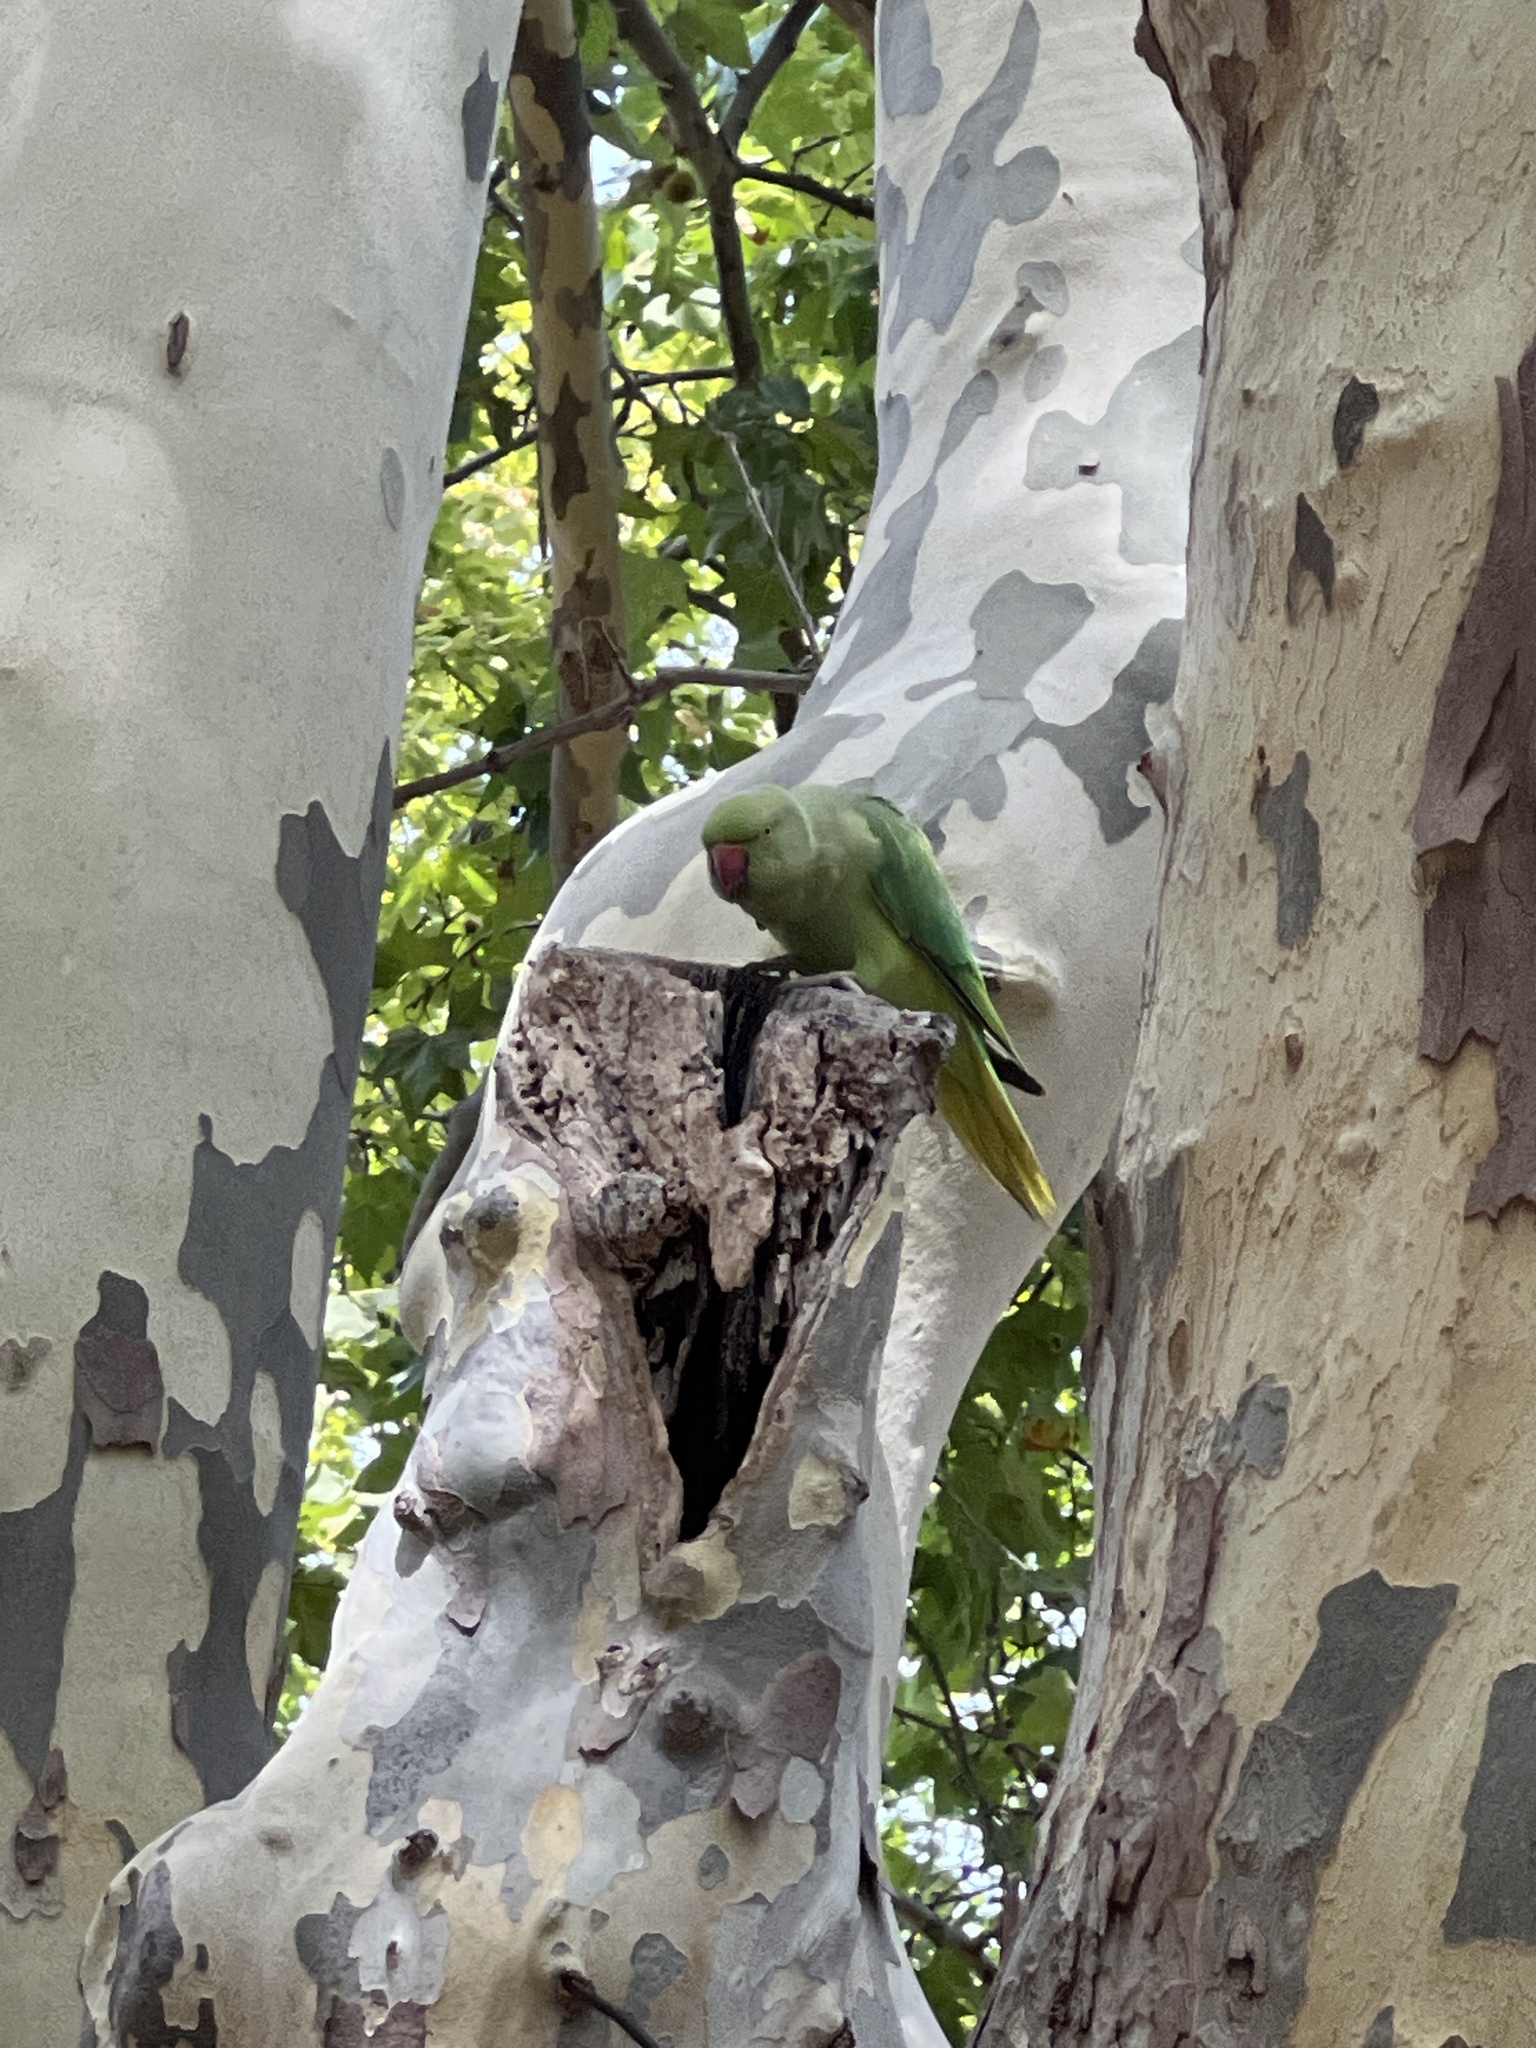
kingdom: Animalia
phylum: Chordata
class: Aves
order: Psittaciformes
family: Psittacidae
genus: Psittacula
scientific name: Psittacula krameri
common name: Rose-ringed parakeet
